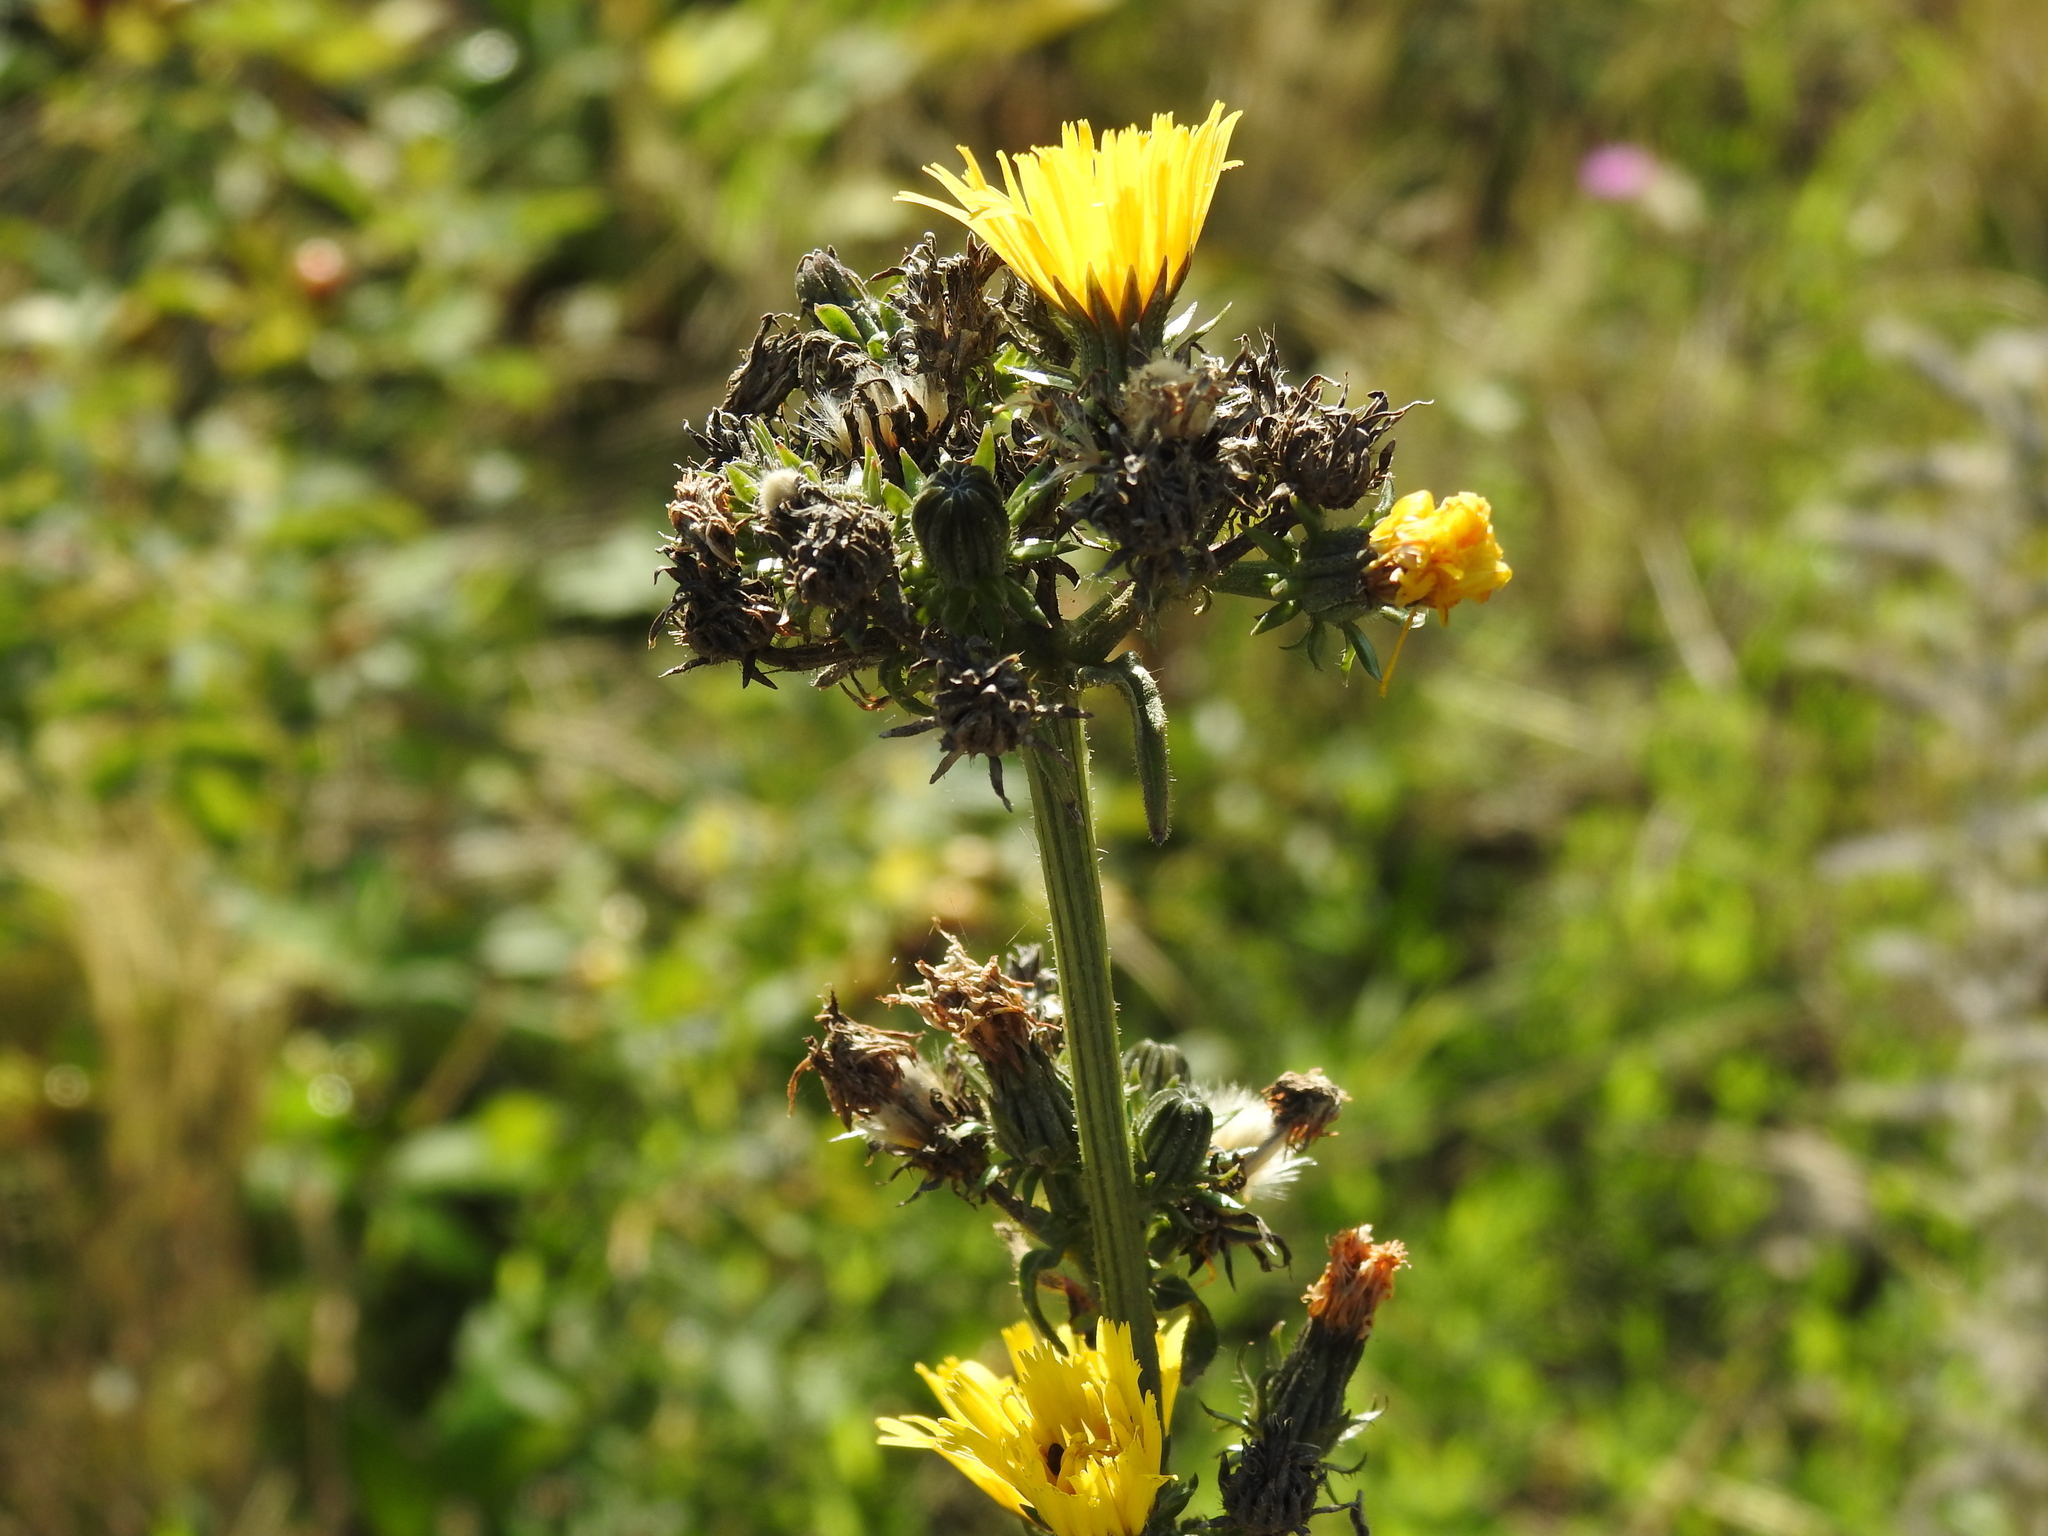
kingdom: Plantae
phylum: Tracheophyta
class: Magnoliopsida
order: Asterales
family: Asteraceae
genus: Picris
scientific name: Picris hieracioides
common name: Hawkweed oxtongue
